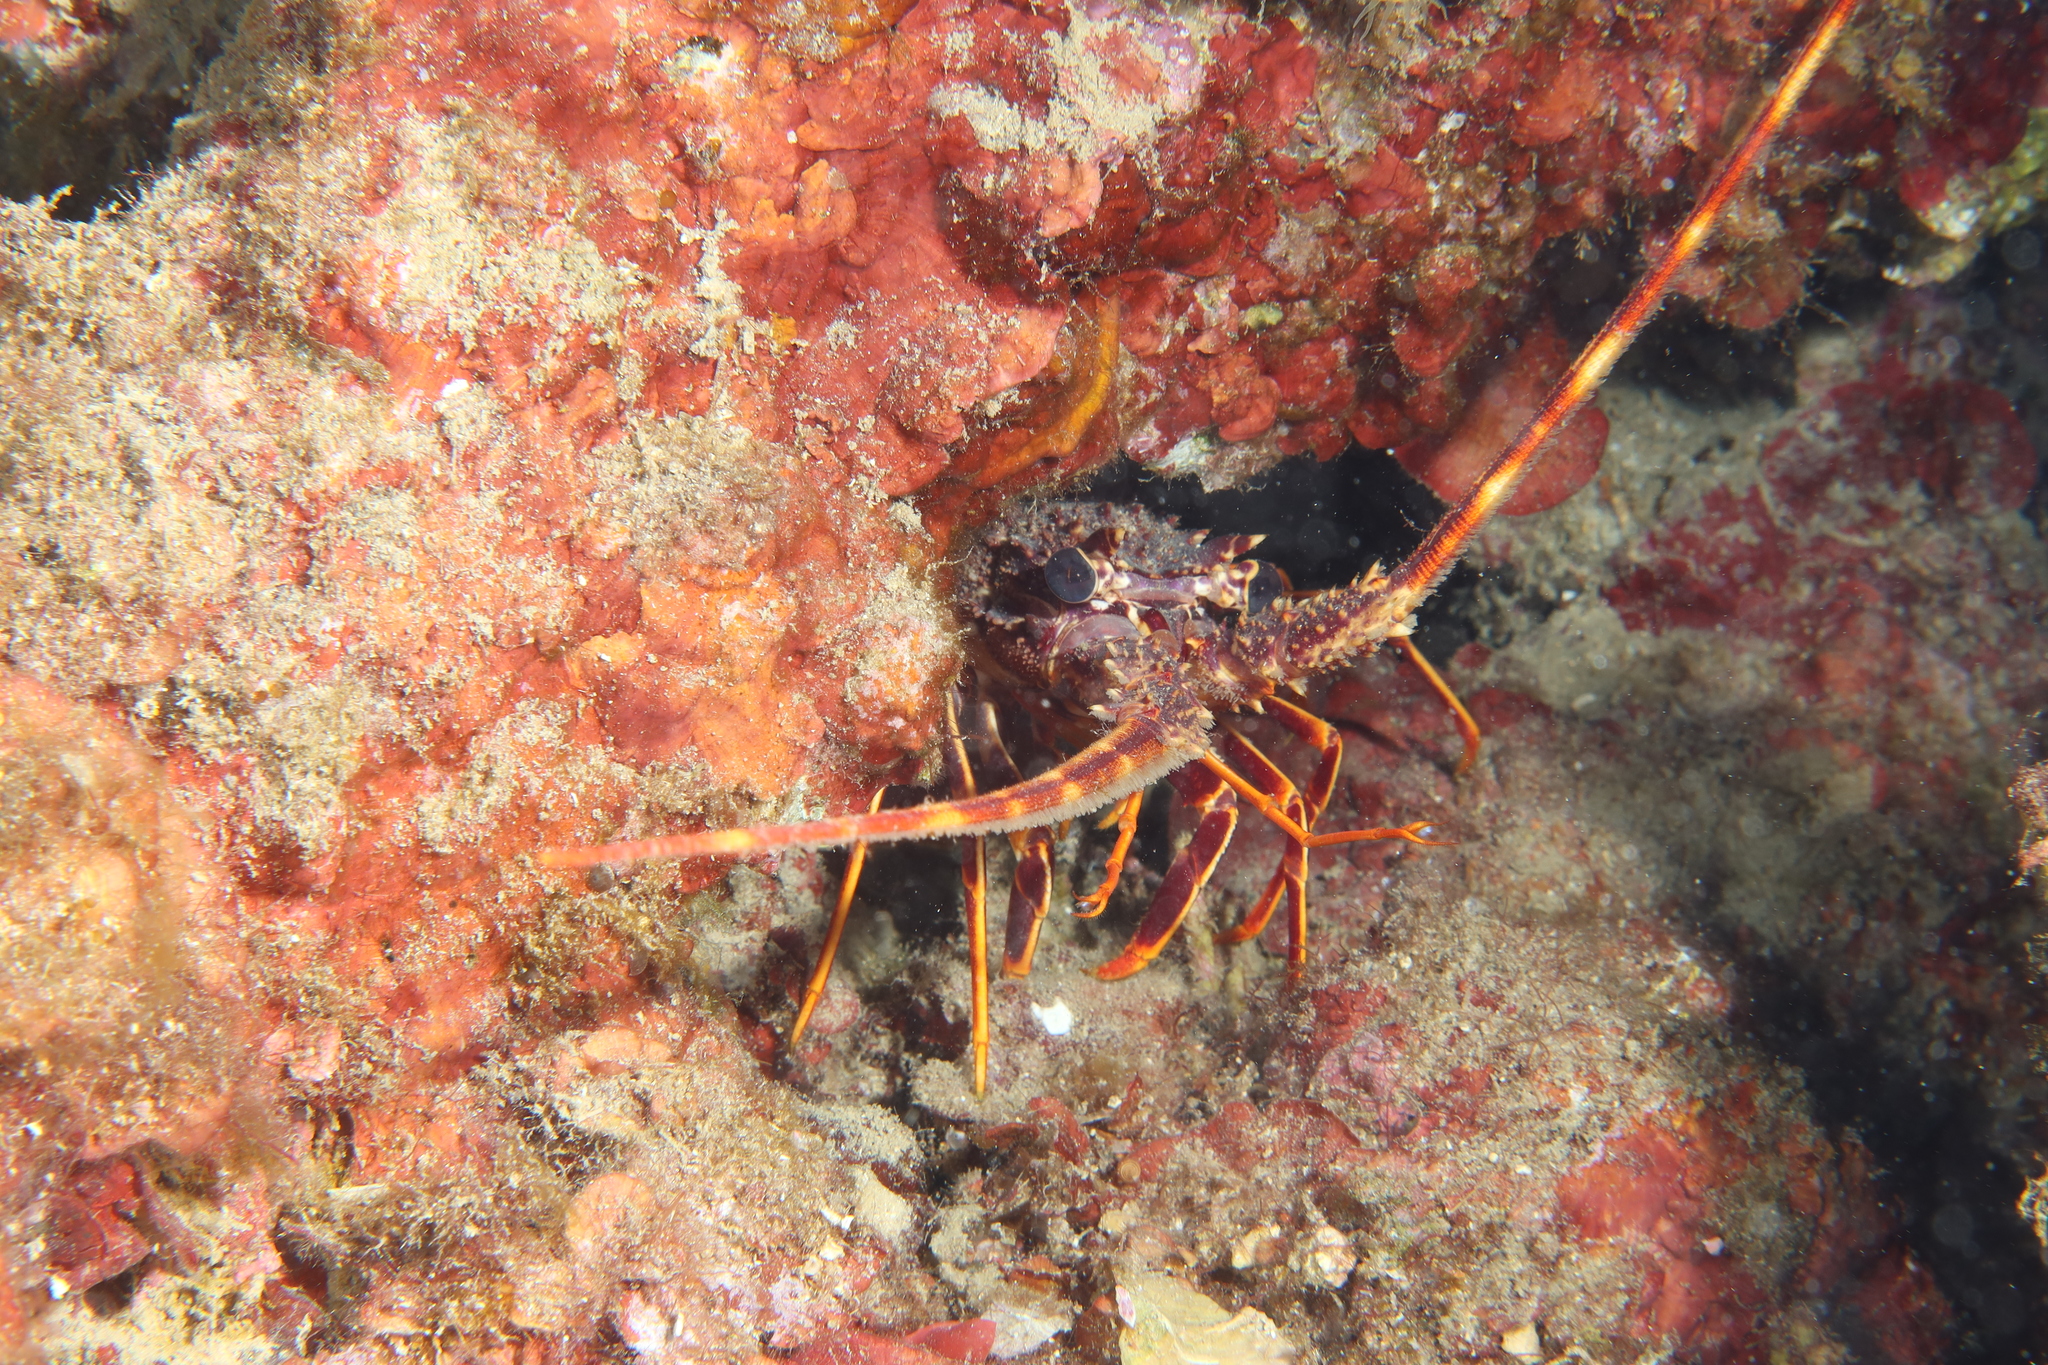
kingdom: Animalia
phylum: Arthropoda
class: Malacostraca
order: Decapoda
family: Palinuridae
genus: Palinurus
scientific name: Palinurus elephas
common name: European spiny lobster
